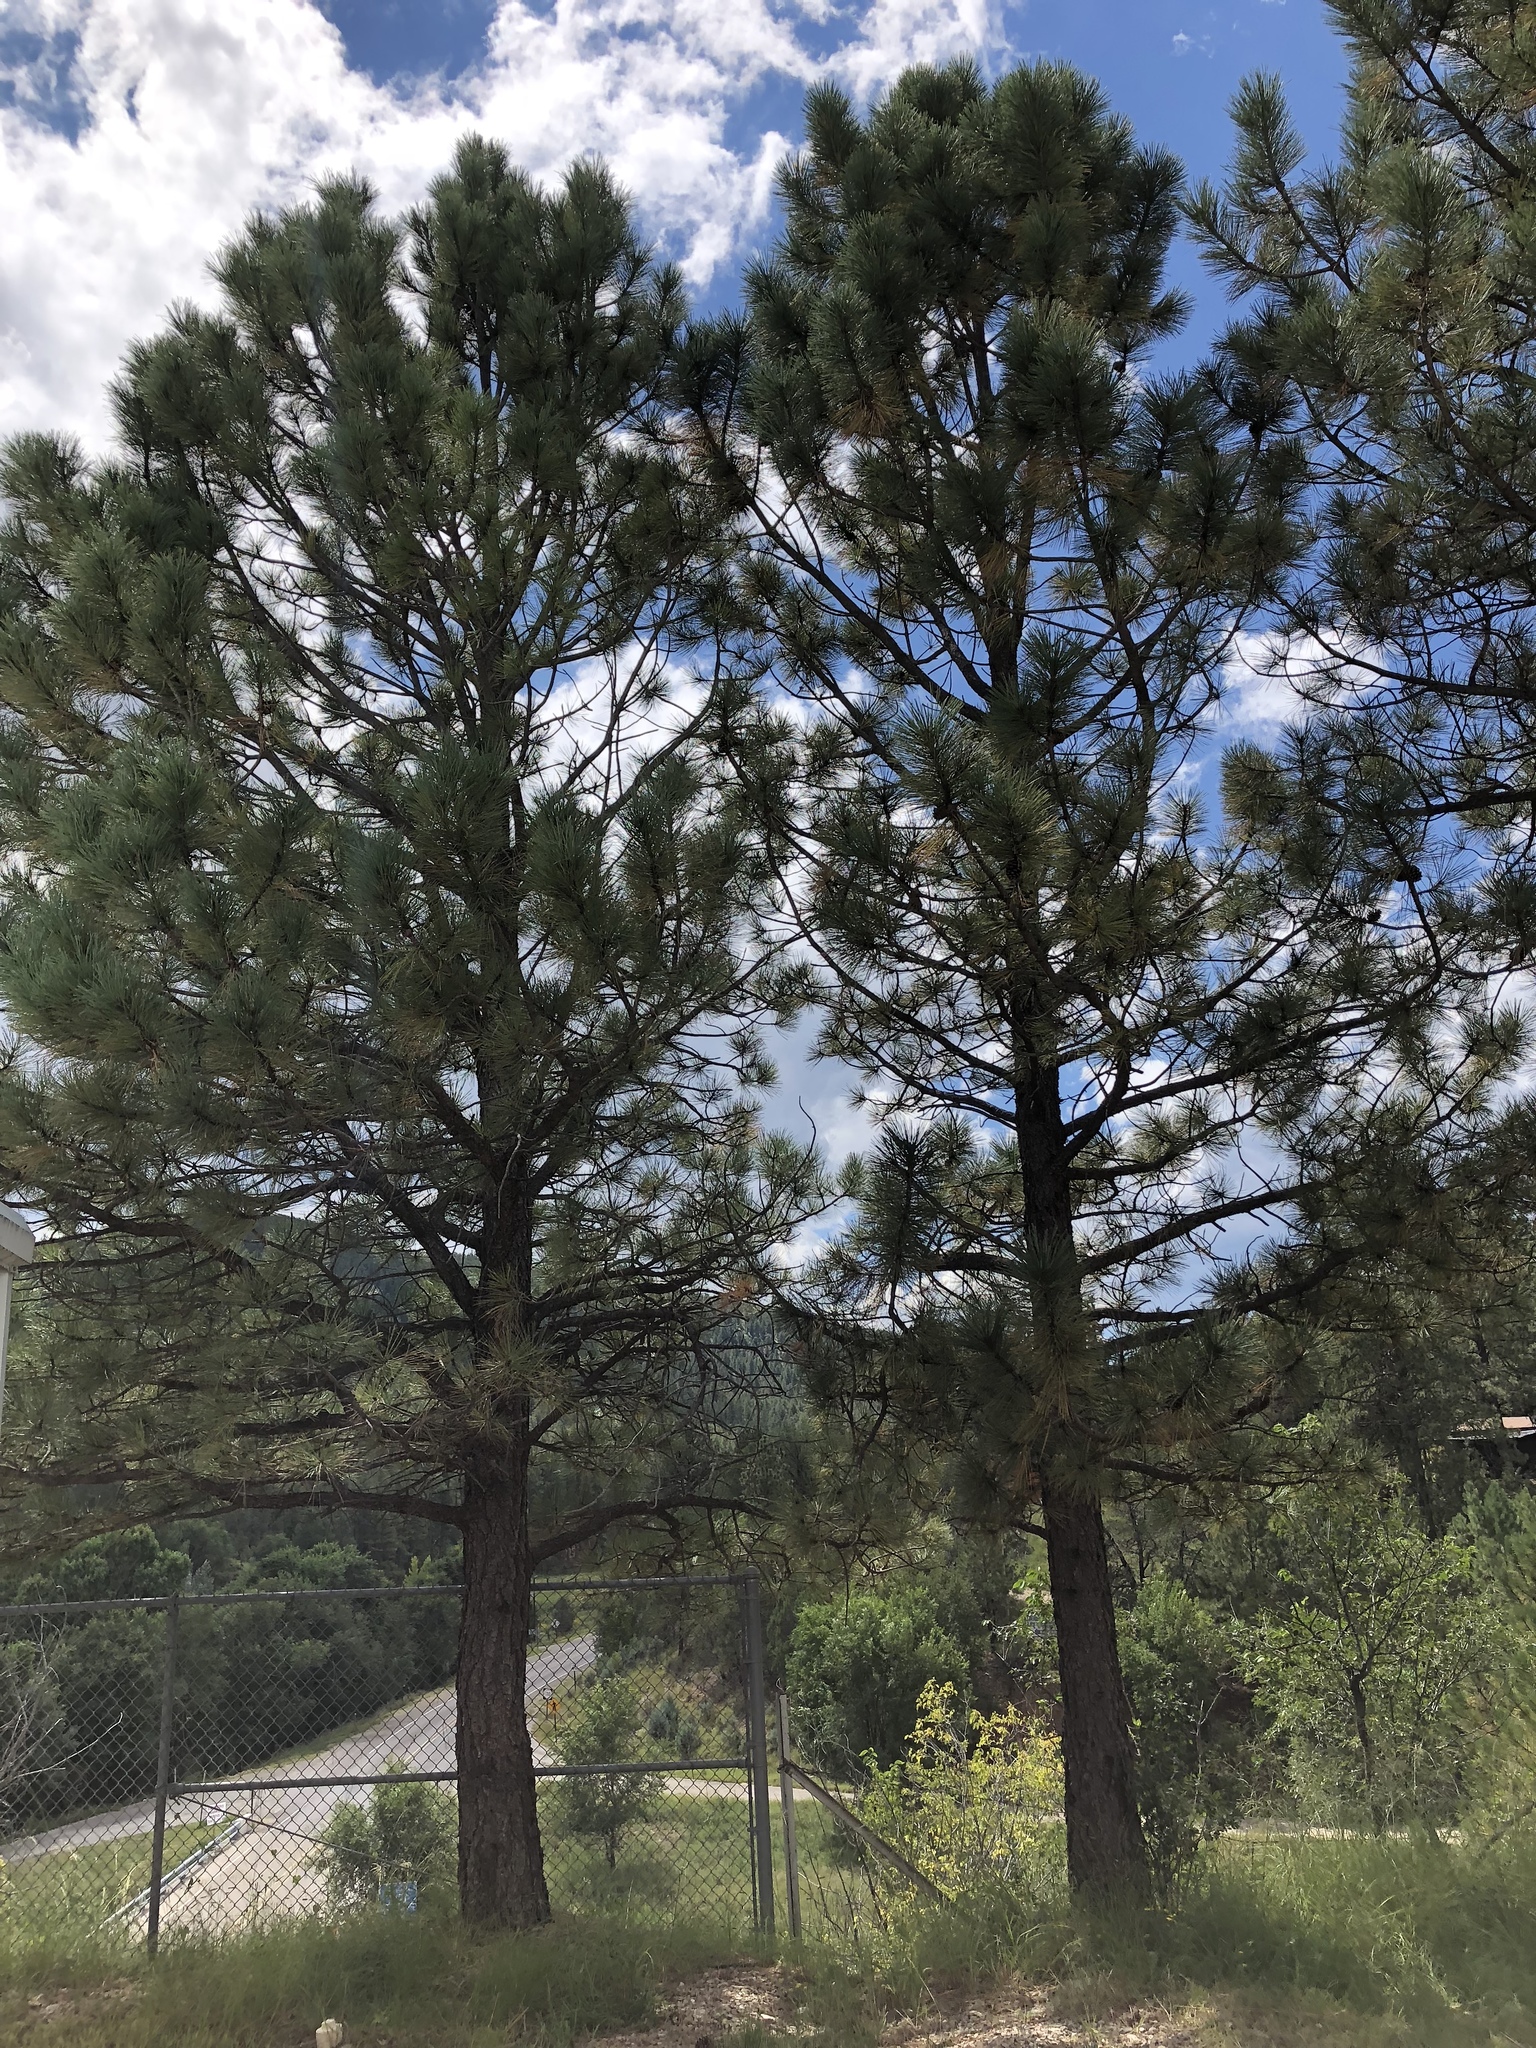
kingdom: Plantae
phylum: Tracheophyta
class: Pinopsida
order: Pinales
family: Pinaceae
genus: Pinus
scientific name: Pinus ponderosa
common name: Western yellow-pine
